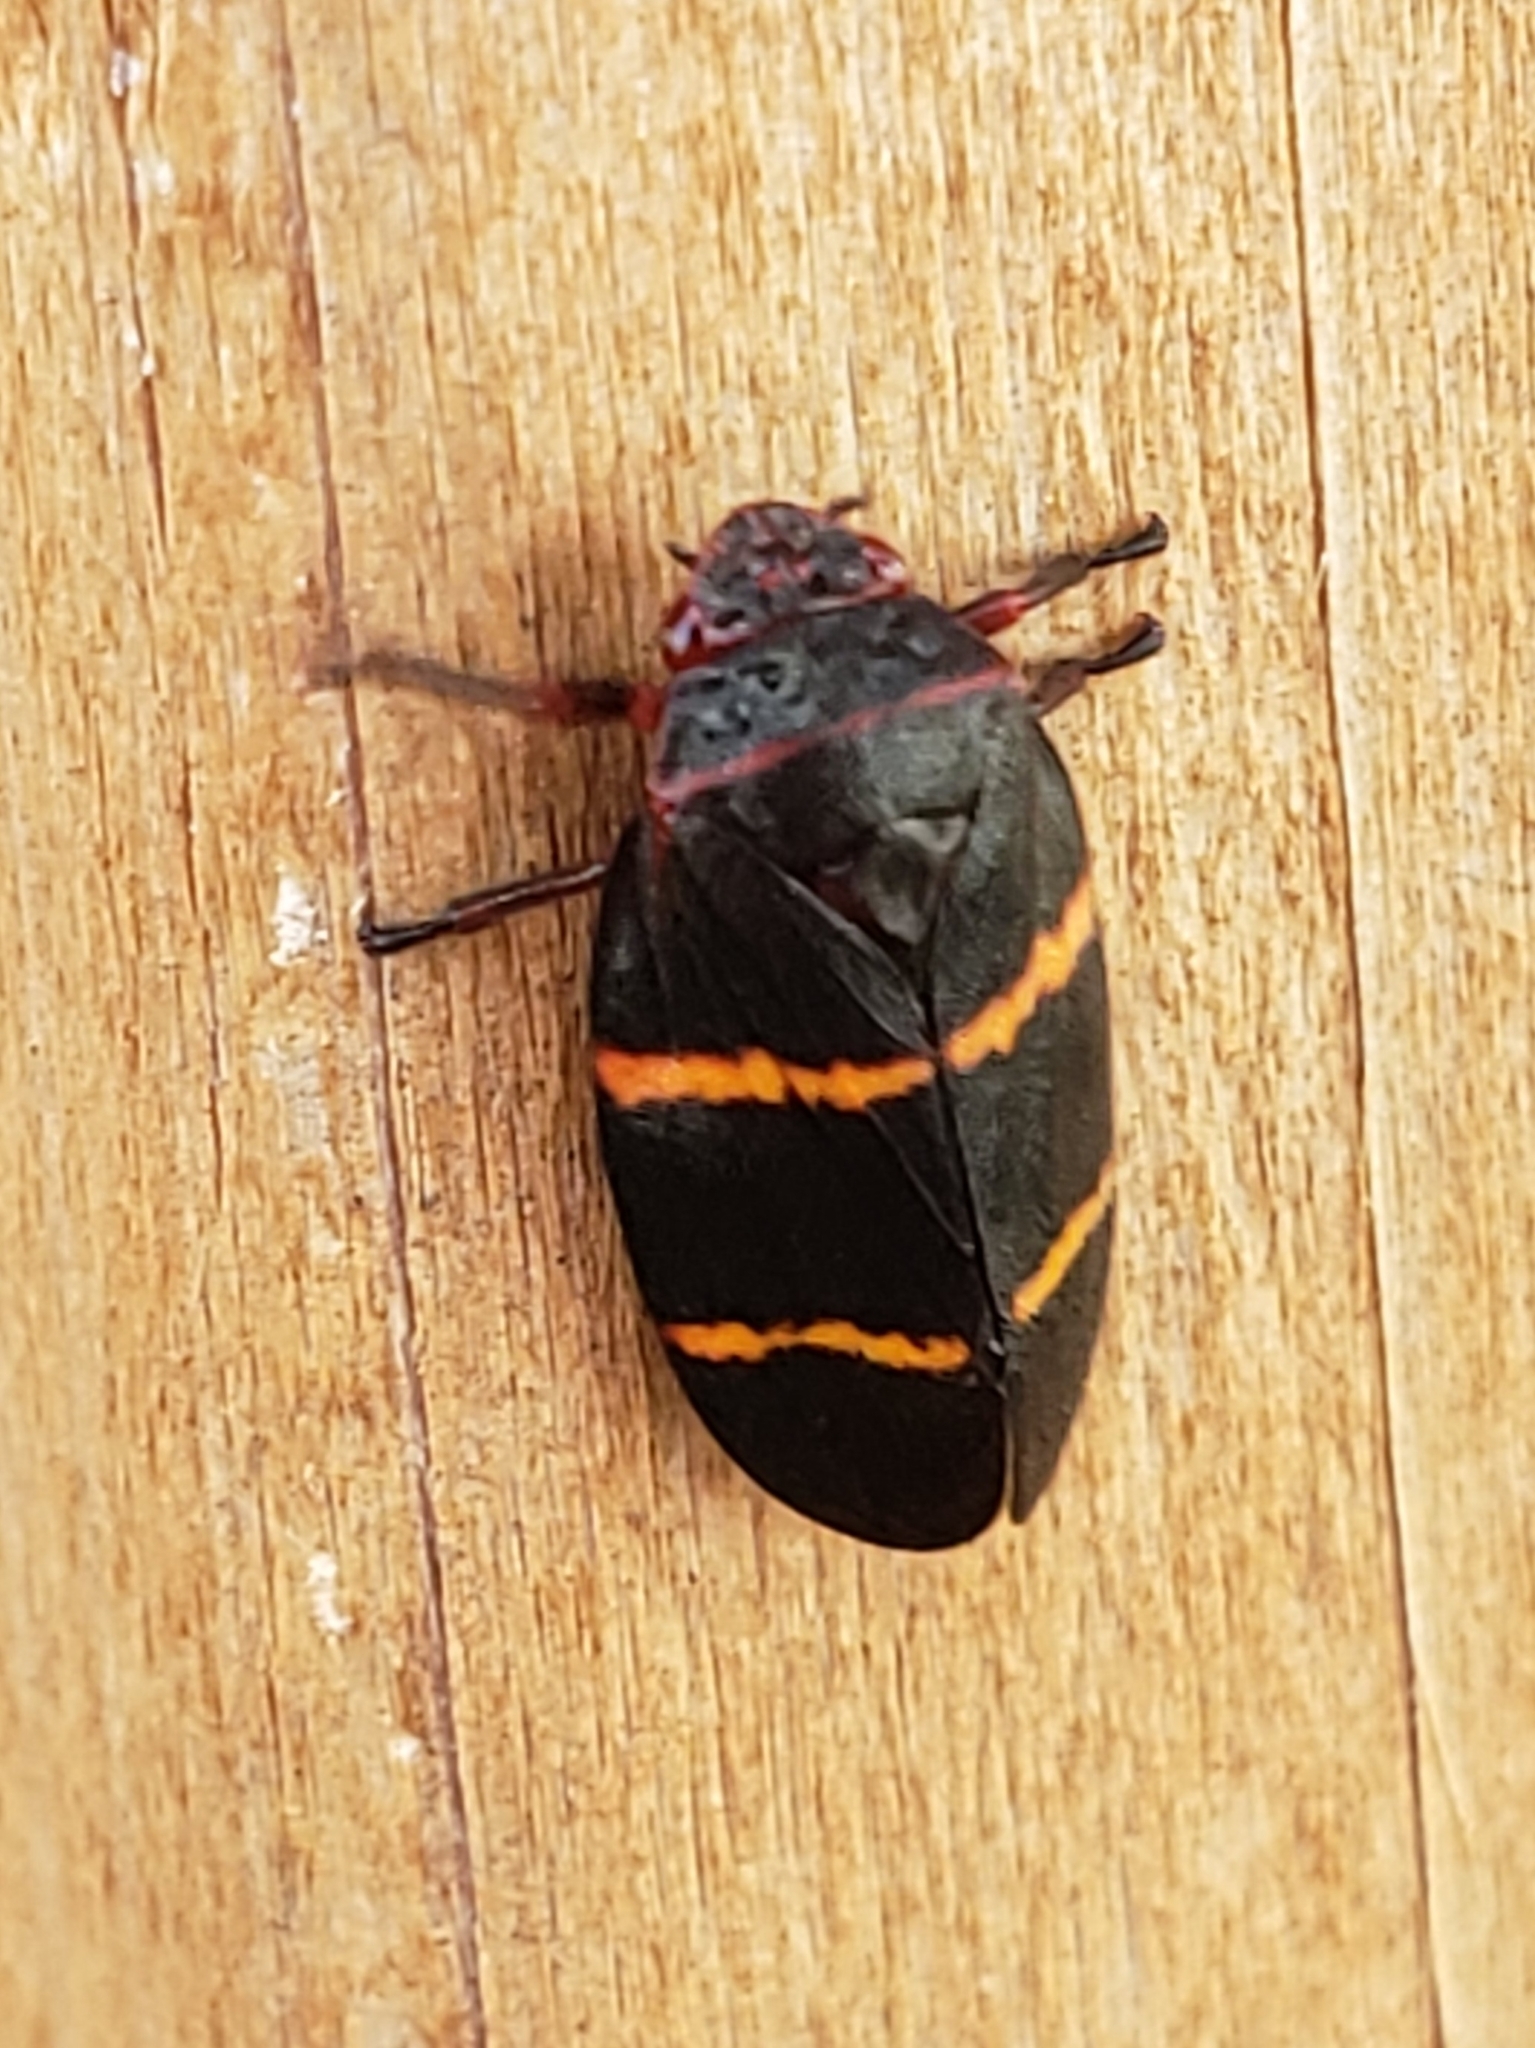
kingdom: Animalia
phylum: Arthropoda
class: Insecta
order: Hemiptera
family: Cercopidae
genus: Prosapia
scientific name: Prosapia bicincta
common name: Twolined spittlebug
